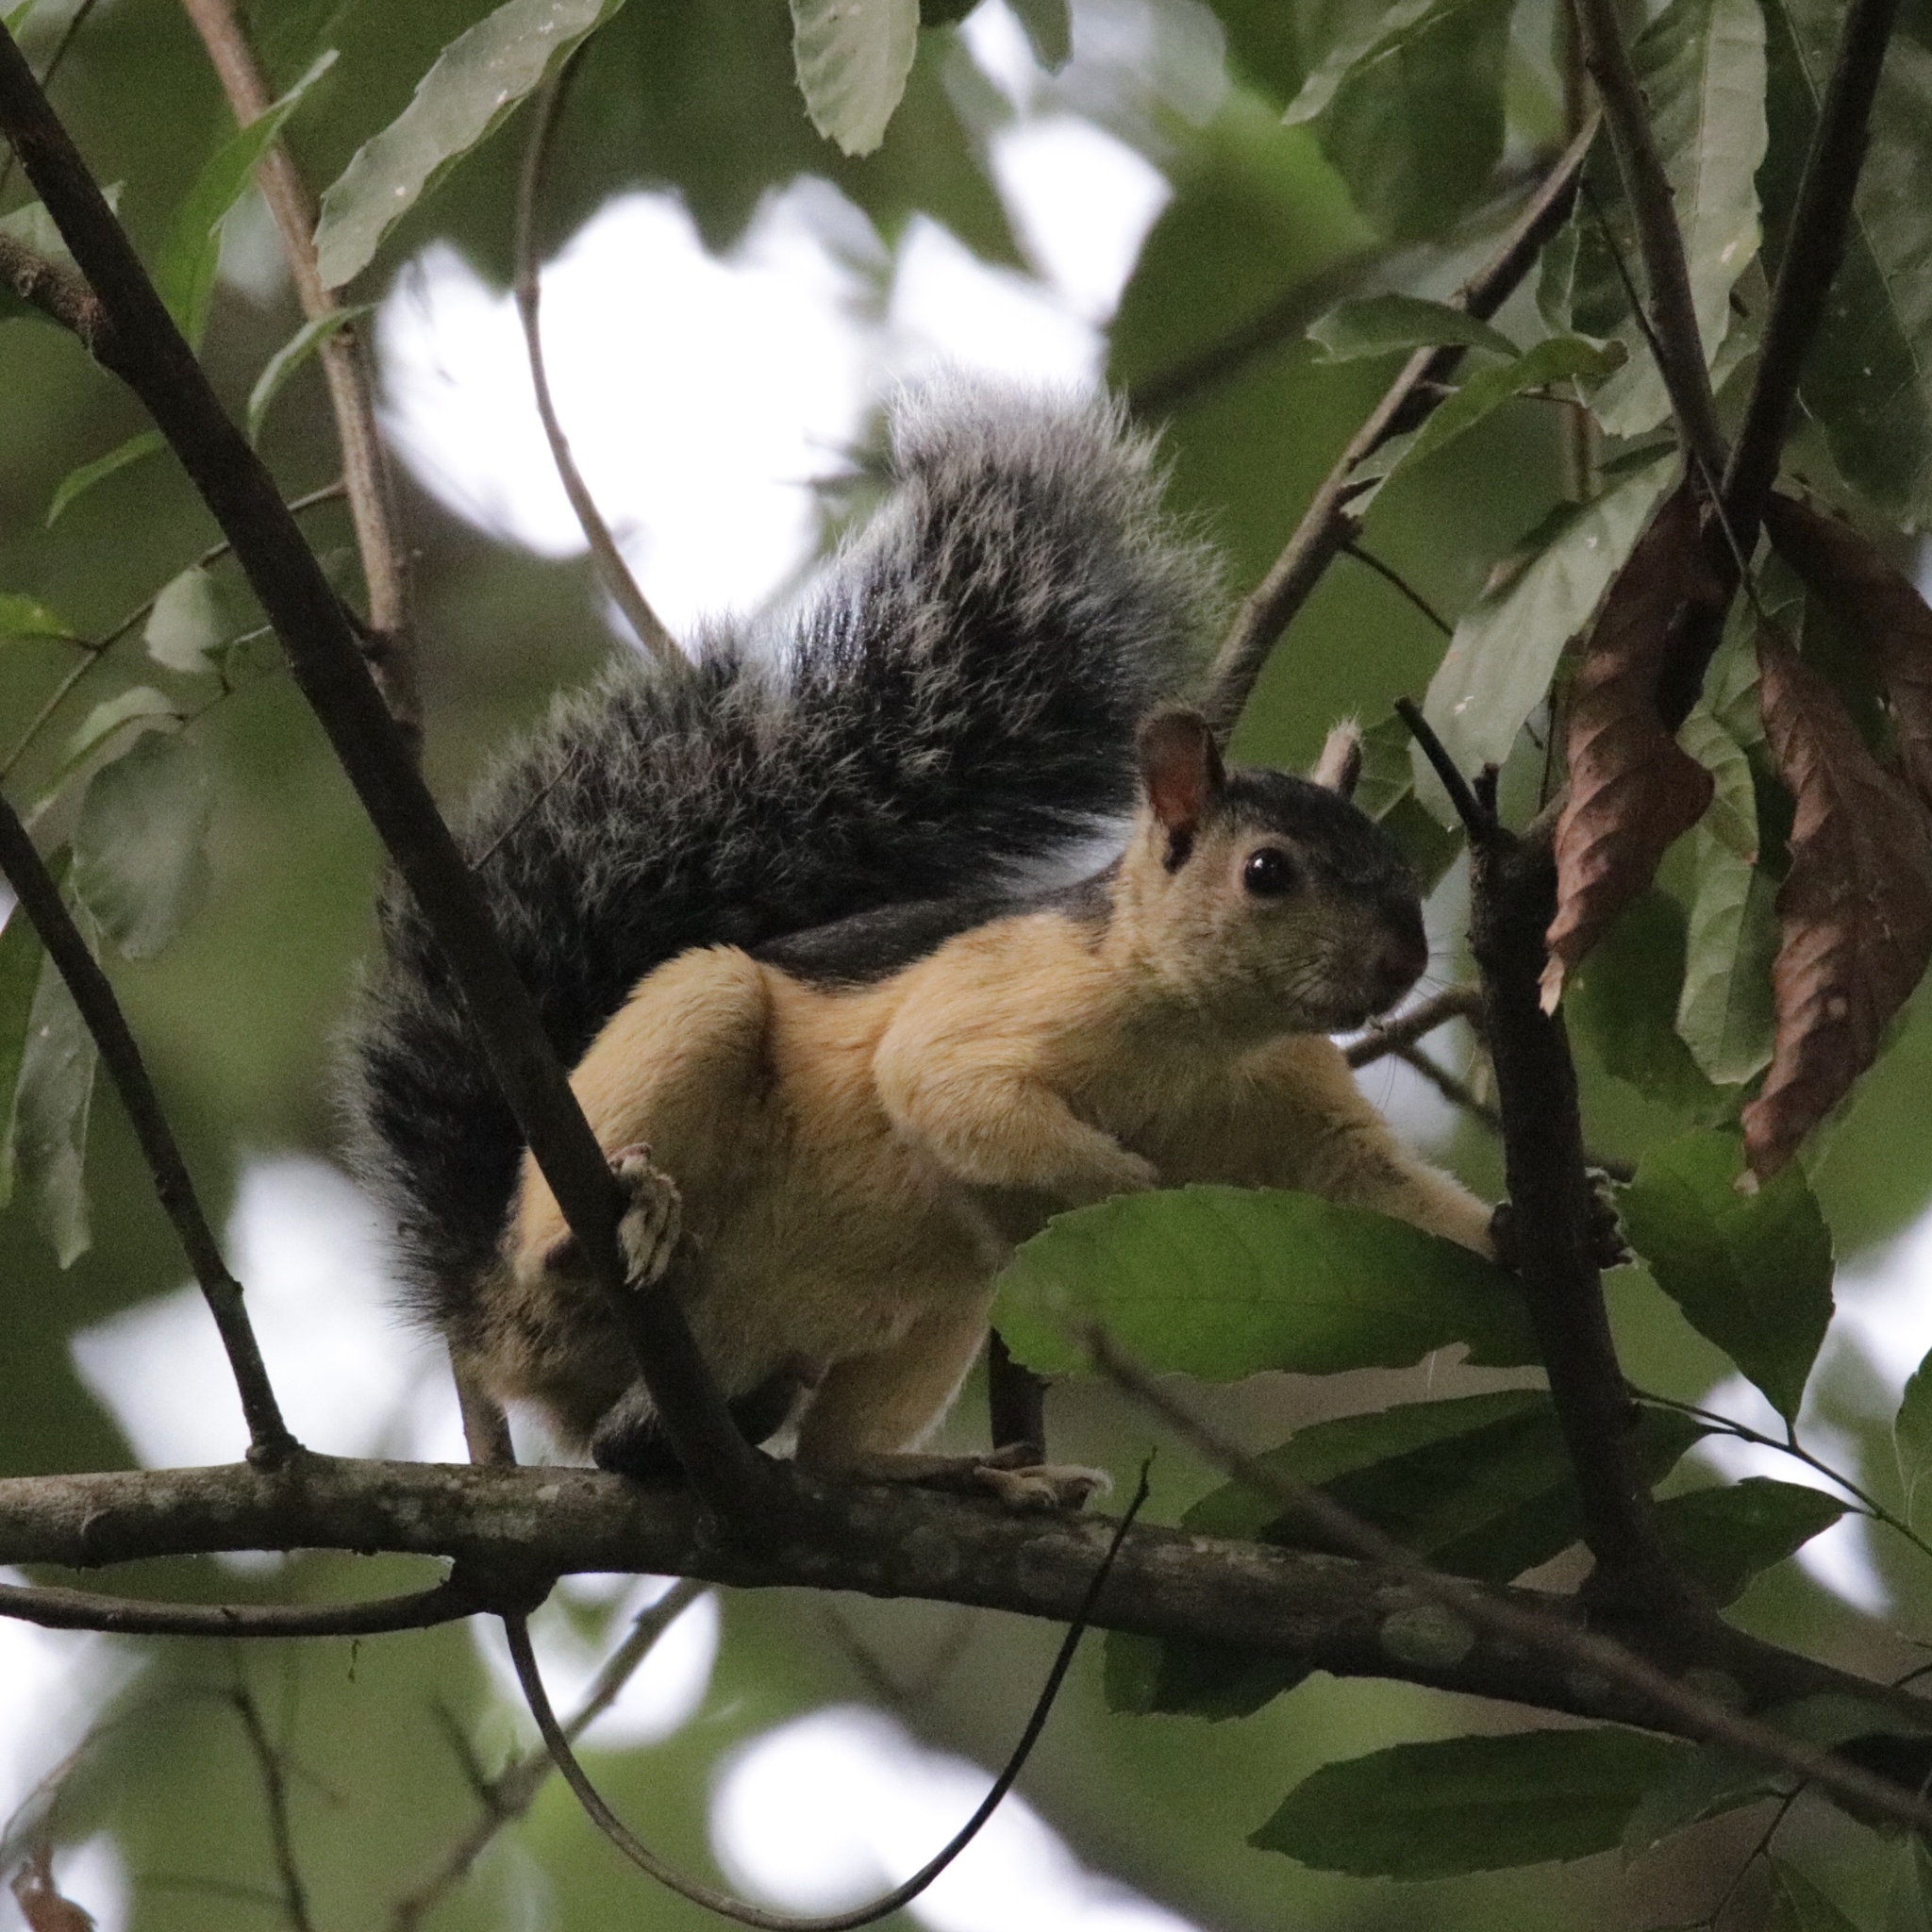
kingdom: Animalia
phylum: Chordata
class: Mammalia
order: Rodentia
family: Sciuridae
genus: Sciurus
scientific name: Sciurus variegatoides
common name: Variegated squirrel
